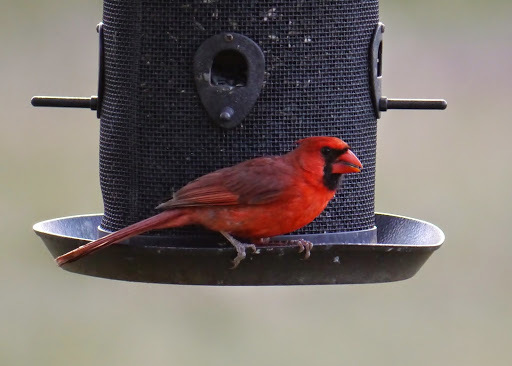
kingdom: Animalia
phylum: Chordata
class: Aves
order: Passeriformes
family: Cardinalidae
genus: Cardinalis
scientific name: Cardinalis cardinalis
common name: Northern cardinal
